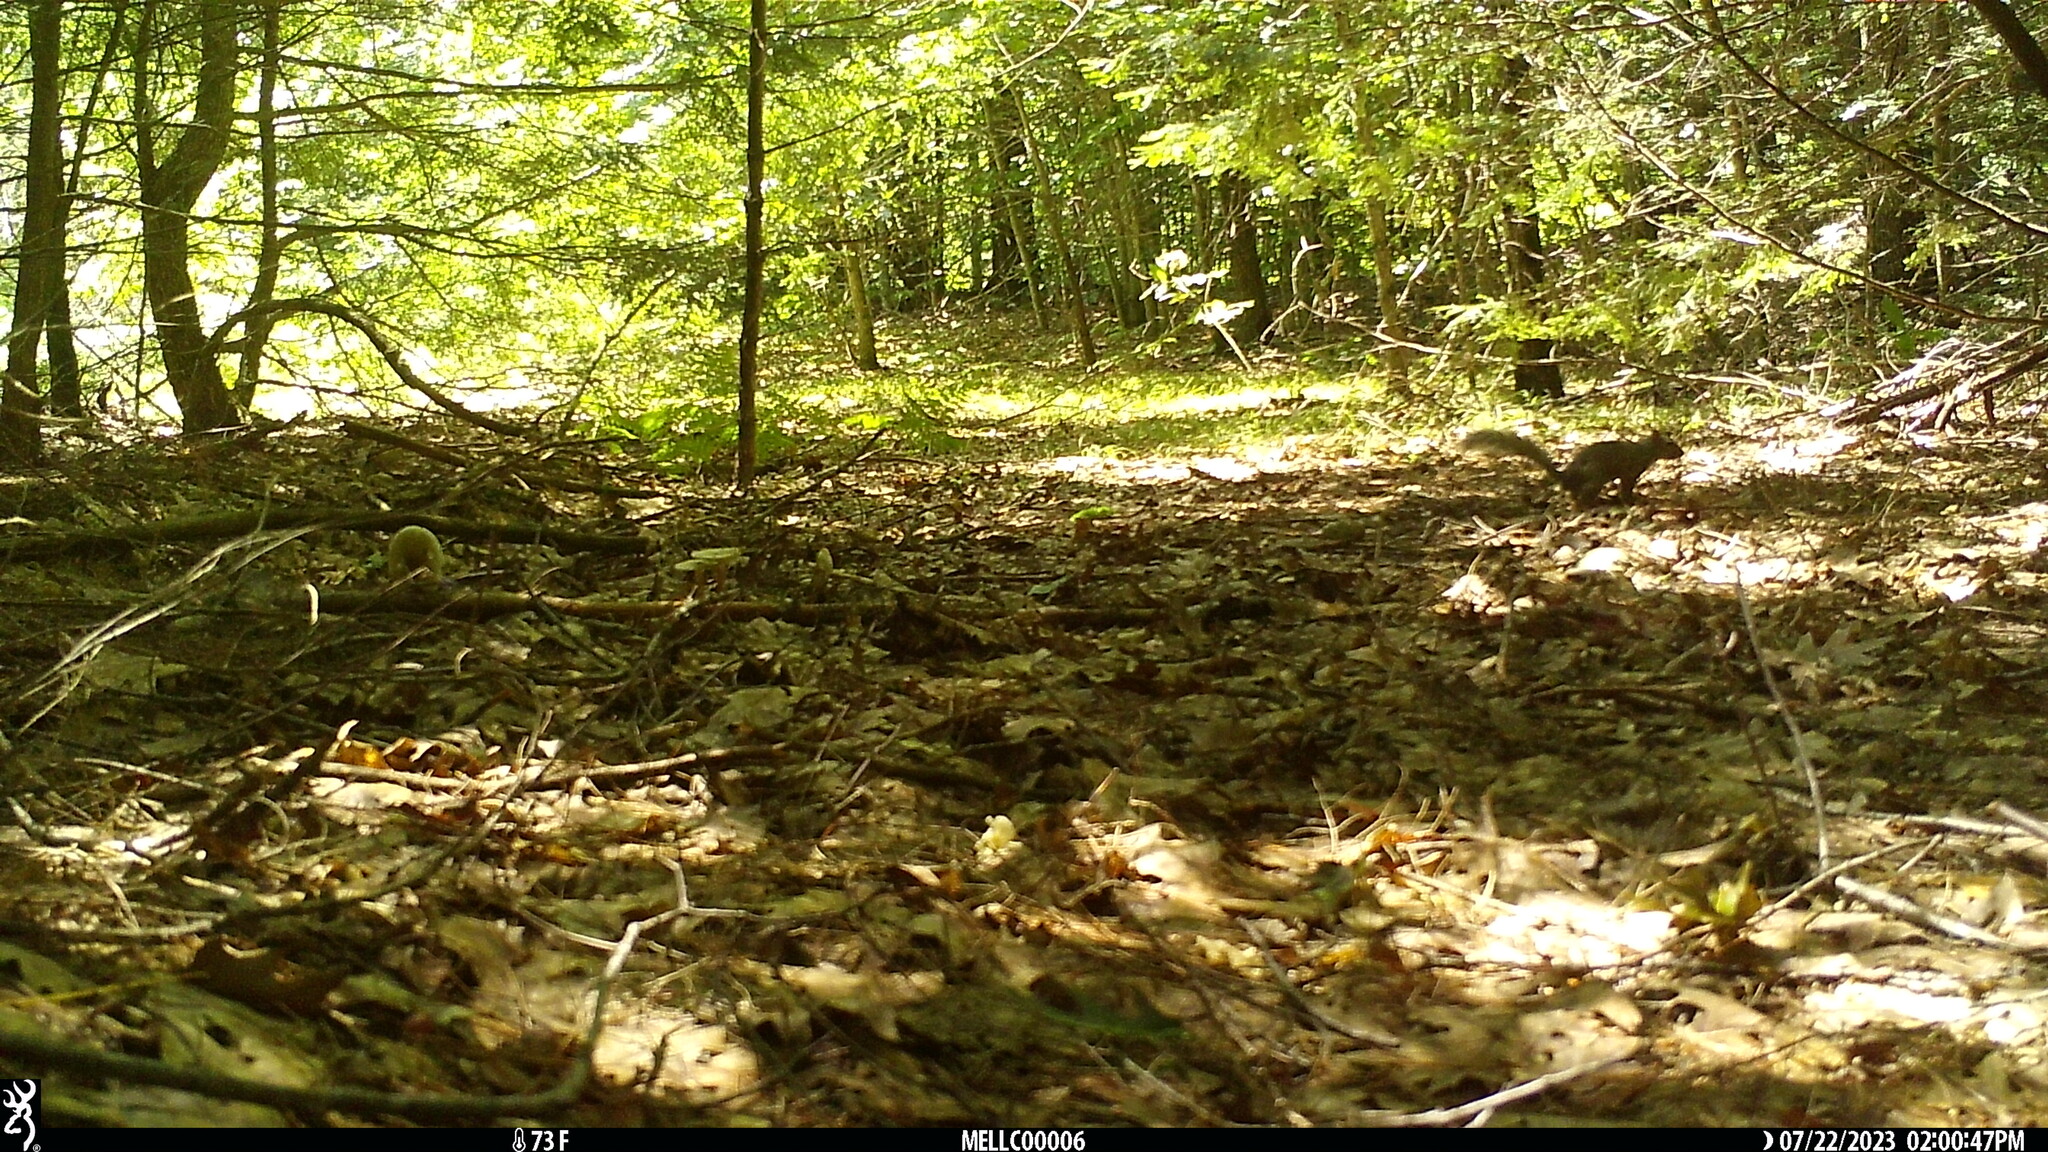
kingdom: Animalia
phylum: Chordata
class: Mammalia
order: Rodentia
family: Sciuridae
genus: Sciurus
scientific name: Sciurus carolinensis
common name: Eastern gray squirrel
